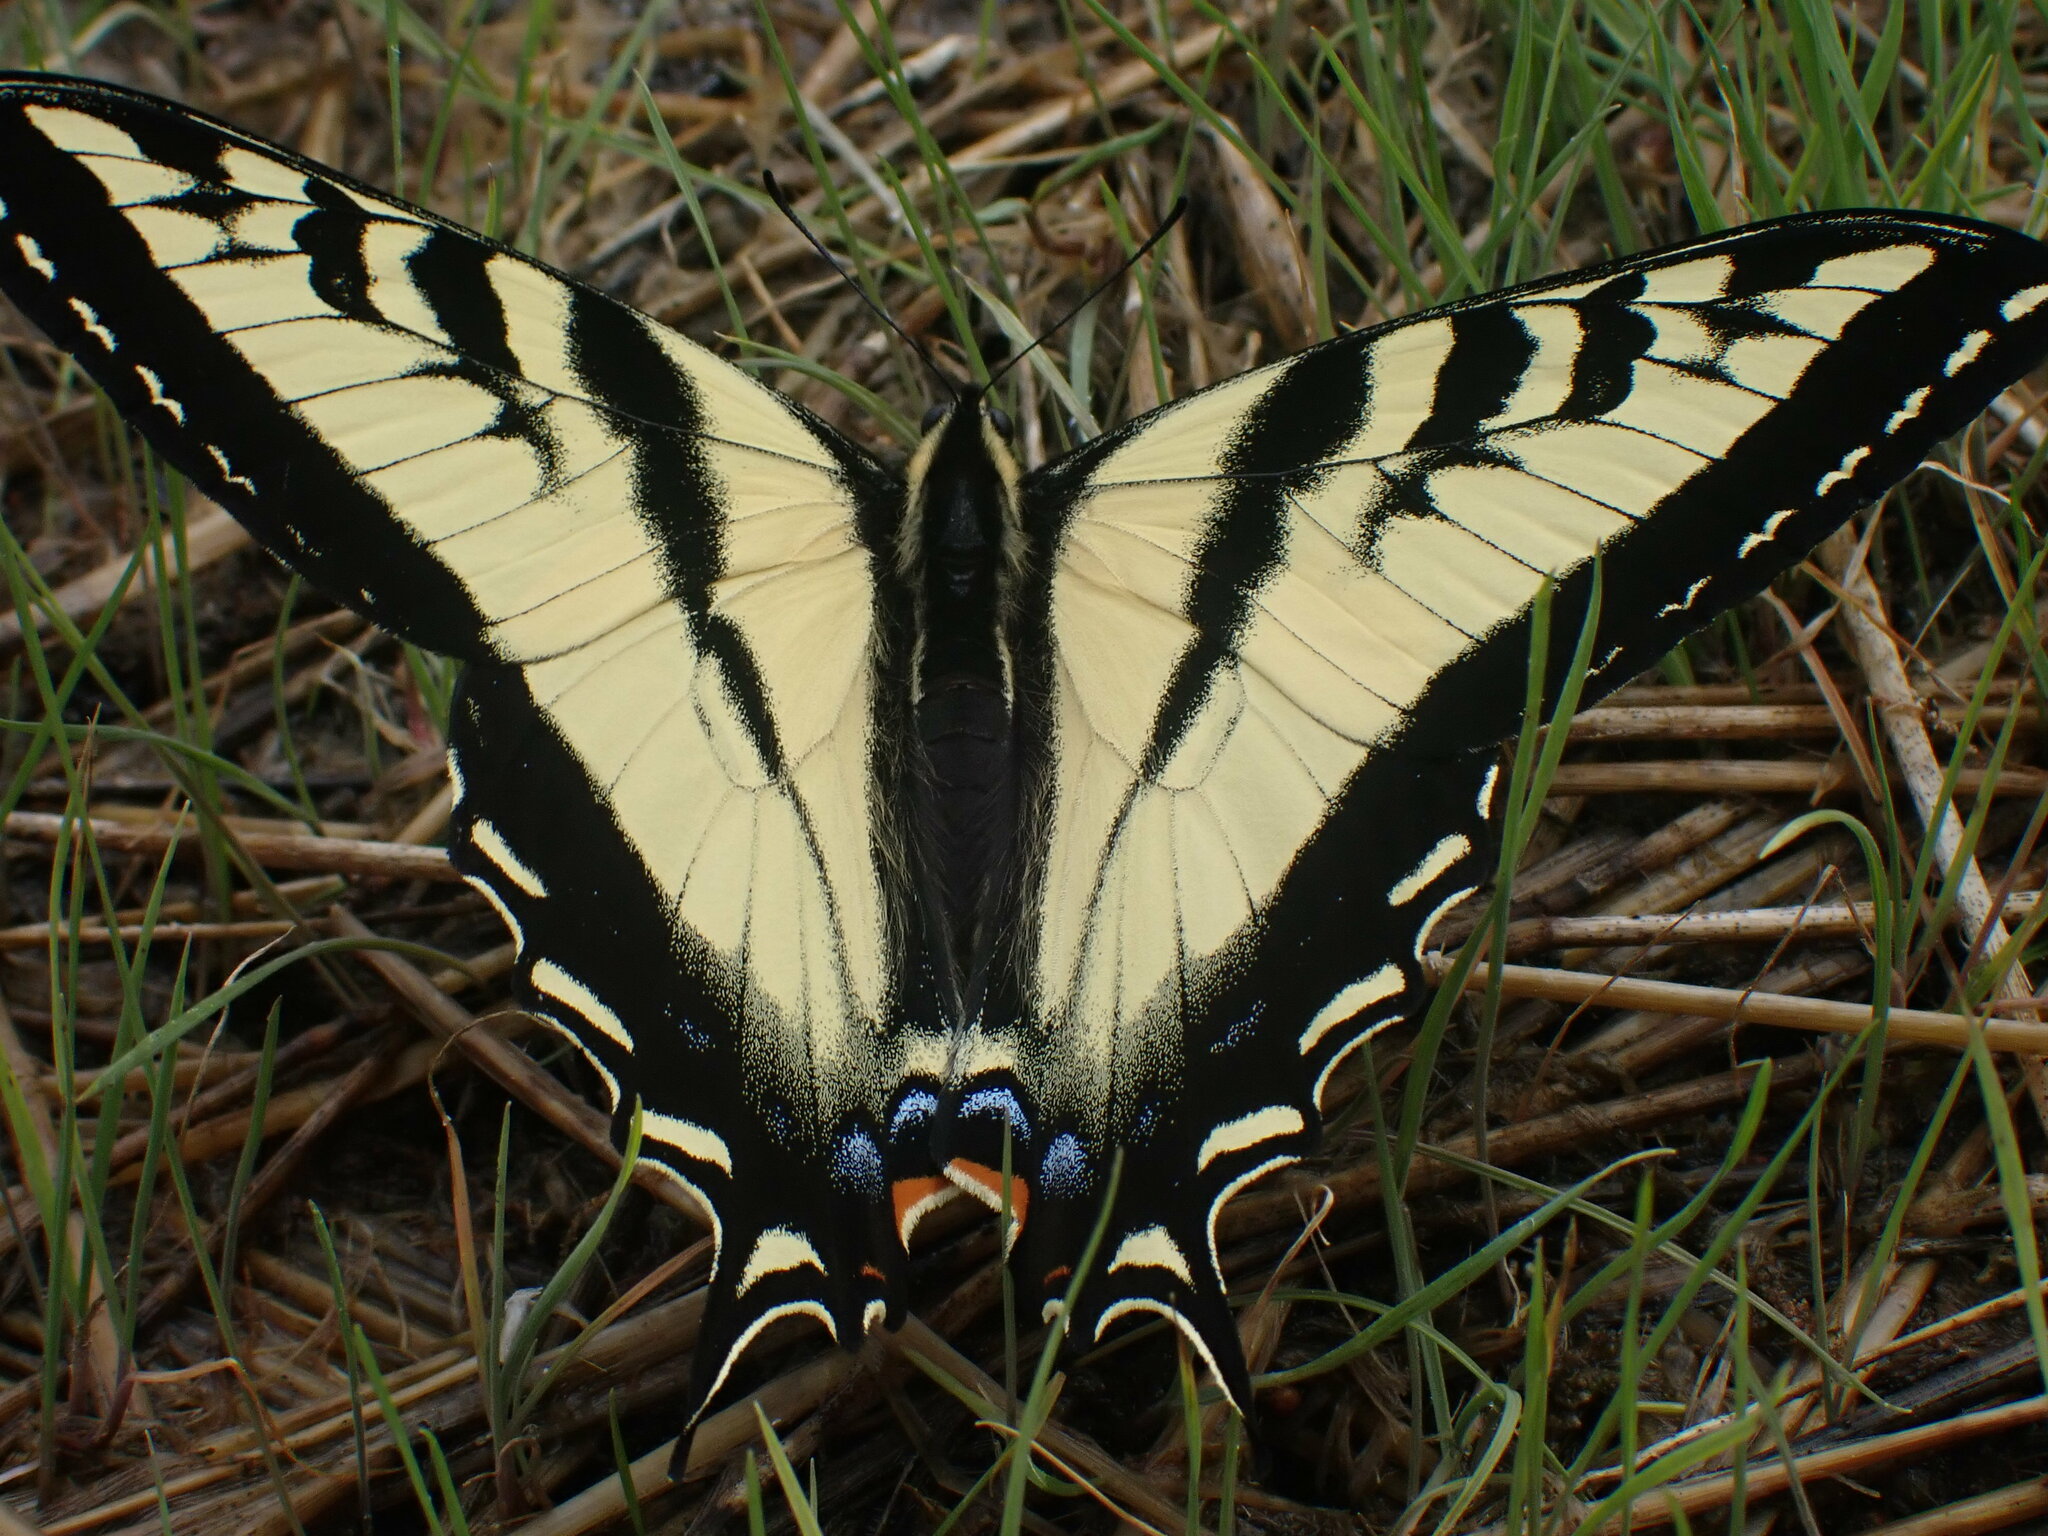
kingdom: Animalia
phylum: Arthropoda
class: Insecta
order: Lepidoptera
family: Papilionidae
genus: Papilio
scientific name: Papilio rutulus
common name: Western tiger swallowtail
